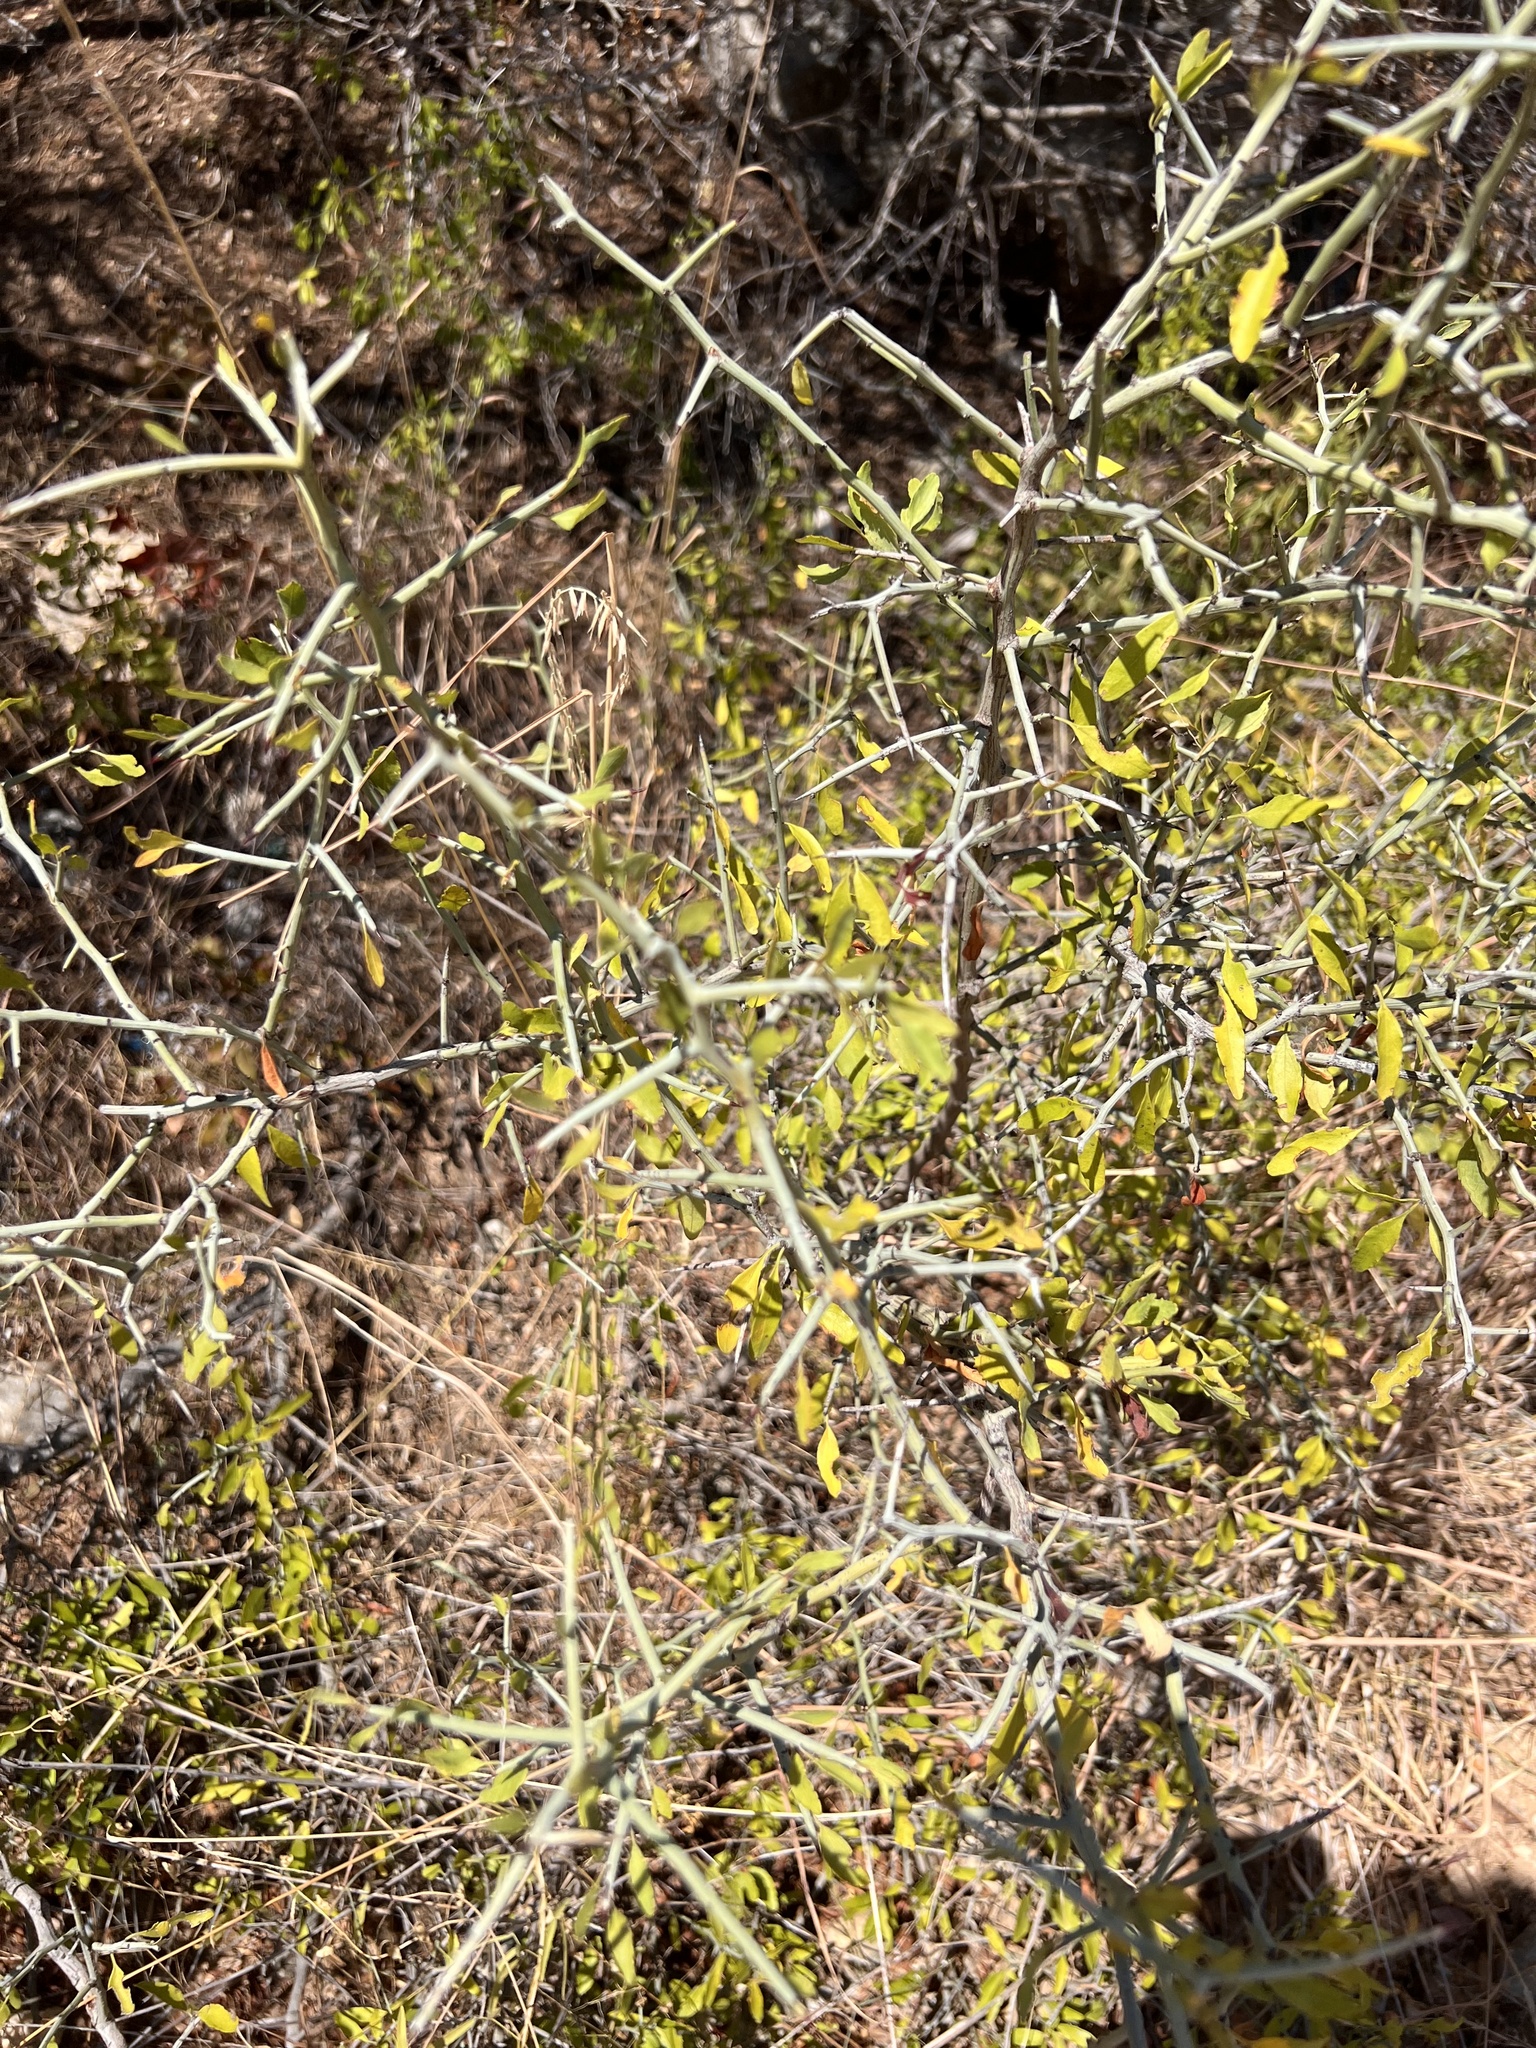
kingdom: Plantae
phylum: Tracheophyta
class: Magnoliopsida
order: Rosales
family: Rhamnaceae
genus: Sarcomphalus
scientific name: Sarcomphalus obtusifolius
